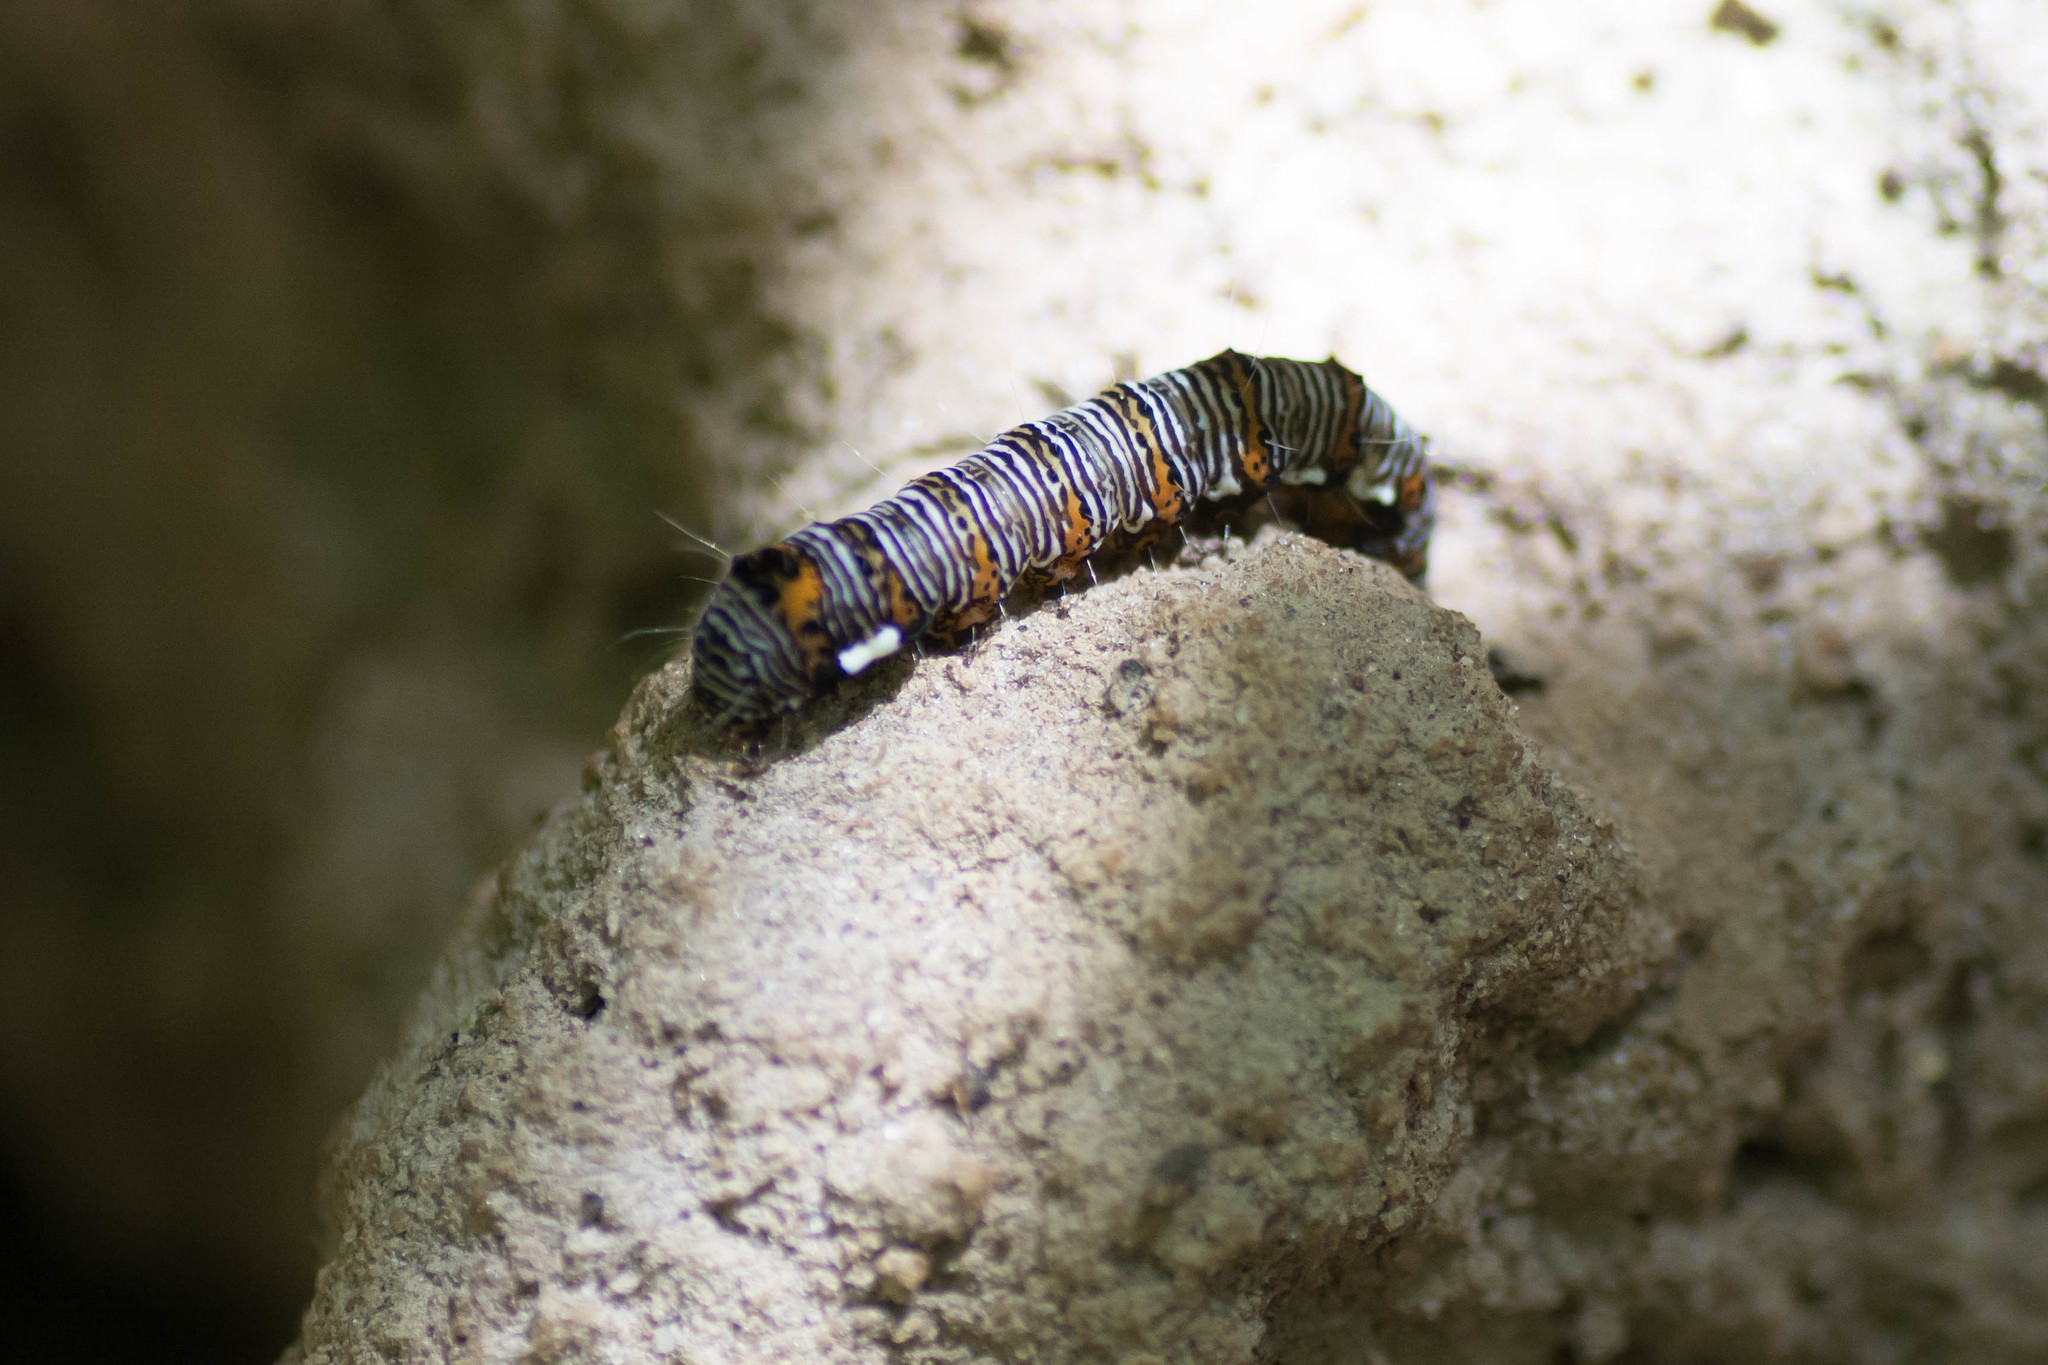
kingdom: Animalia
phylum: Arthropoda
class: Insecta
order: Lepidoptera
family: Noctuidae
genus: Alypia
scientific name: Alypia octomaculata
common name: Eight-spotted forester
